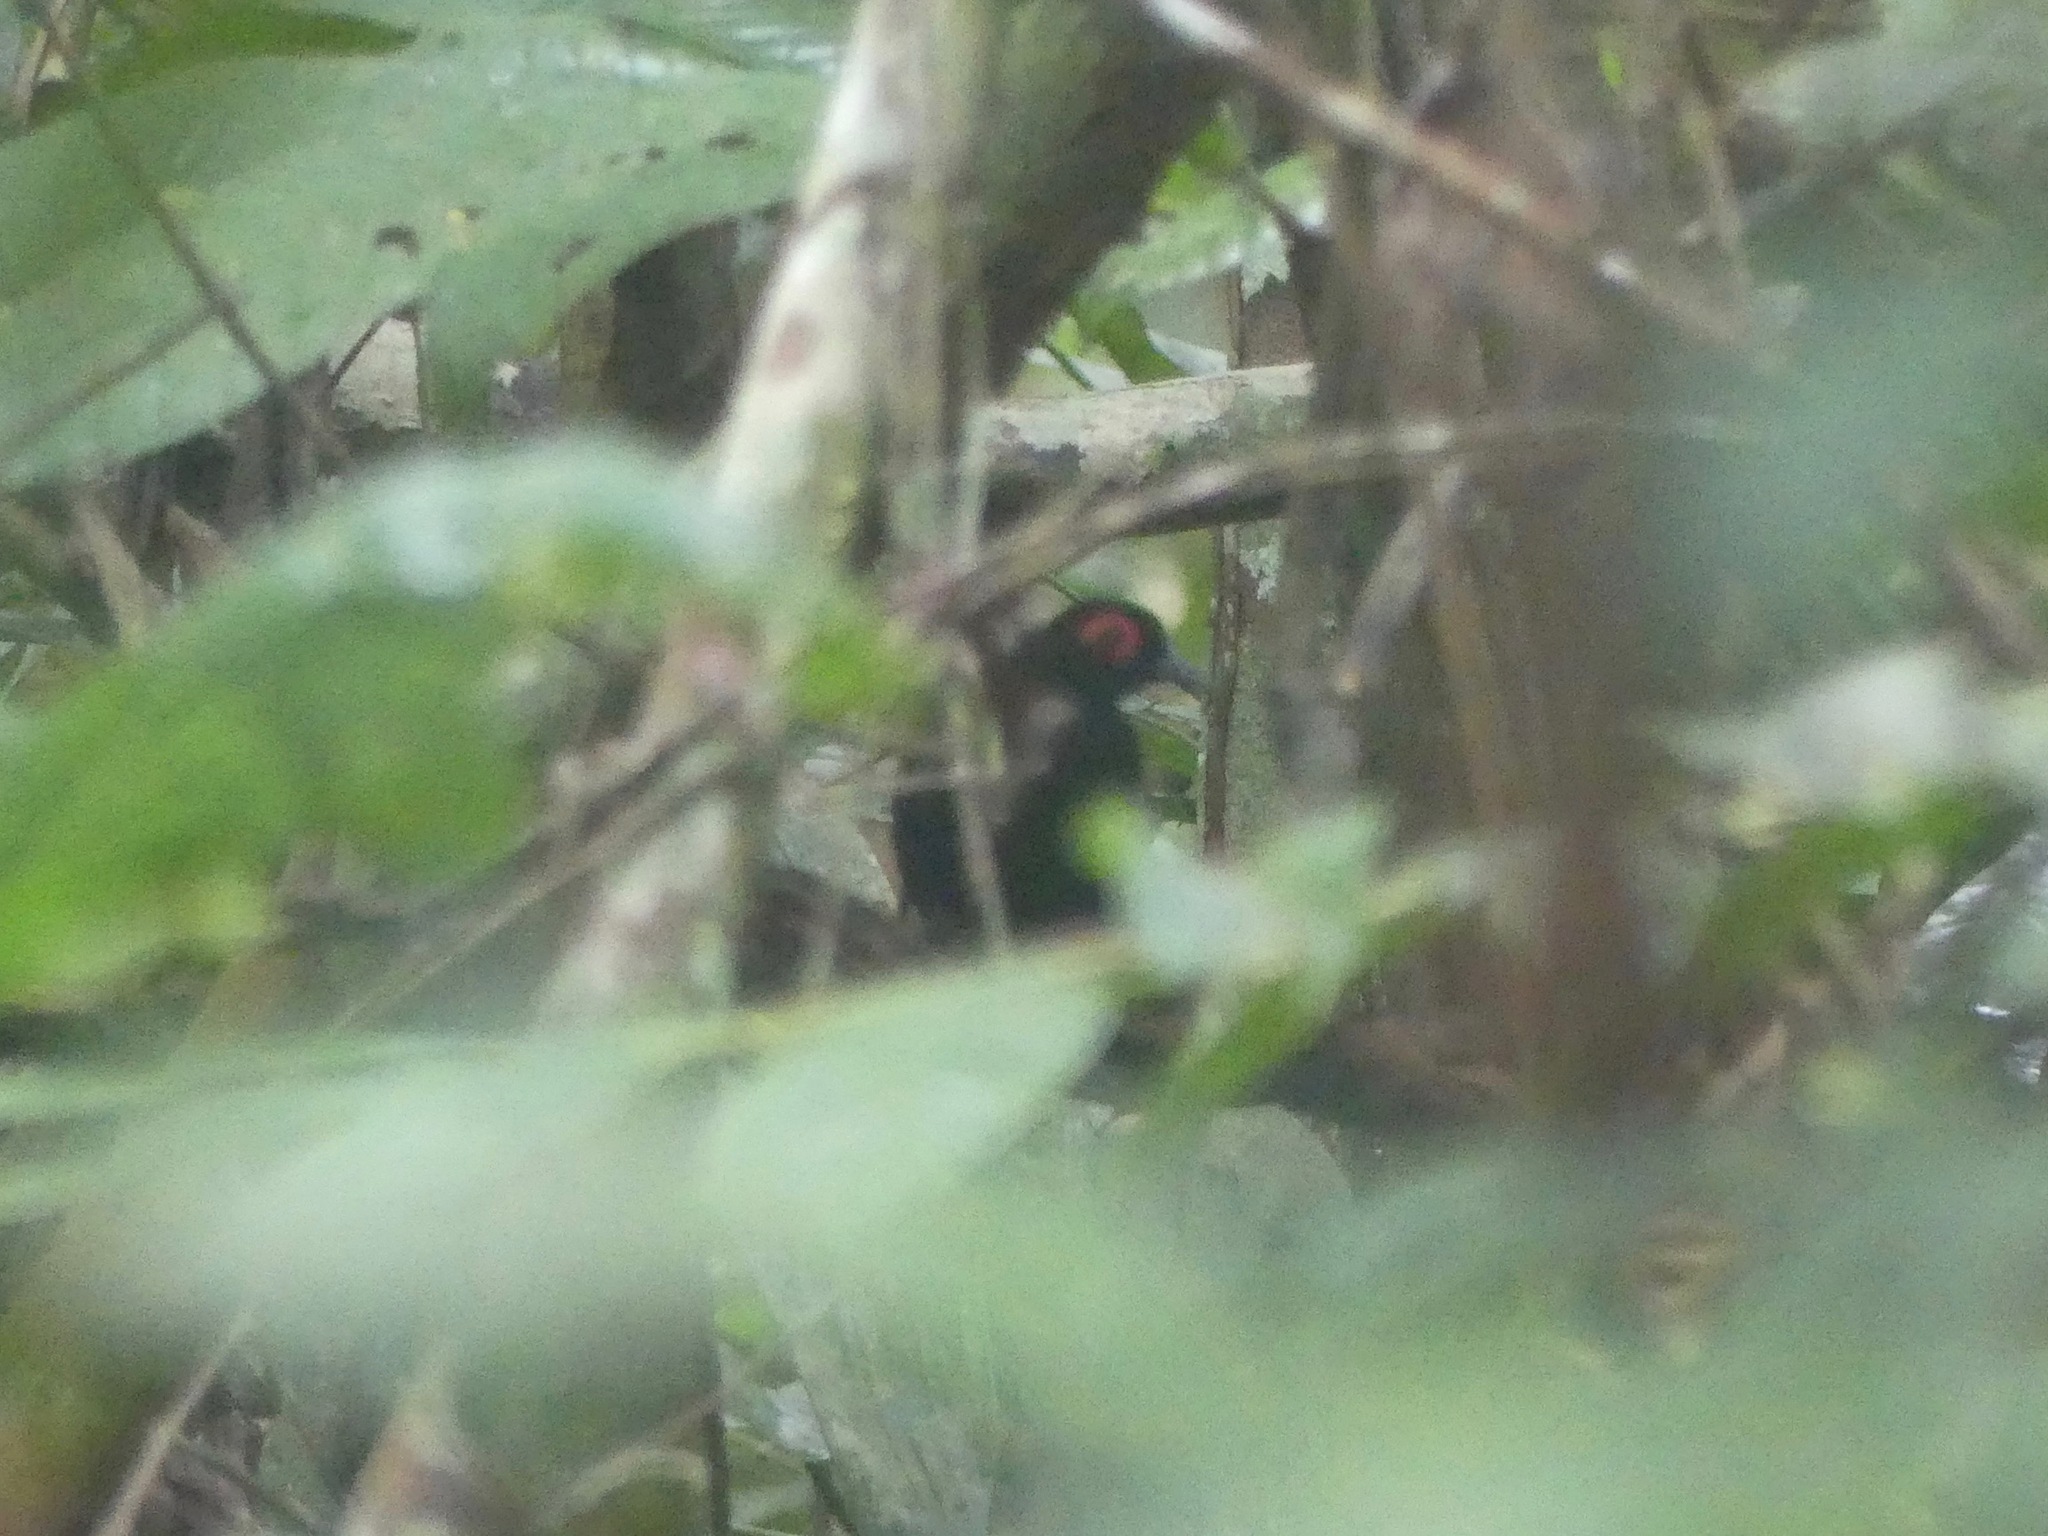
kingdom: Animalia
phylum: Chordata
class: Aves
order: Passeriformes
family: Thamnophilidae
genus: Phlegopsis
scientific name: Phlegopsis nigromaculata
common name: Black-spotted bare-eye
